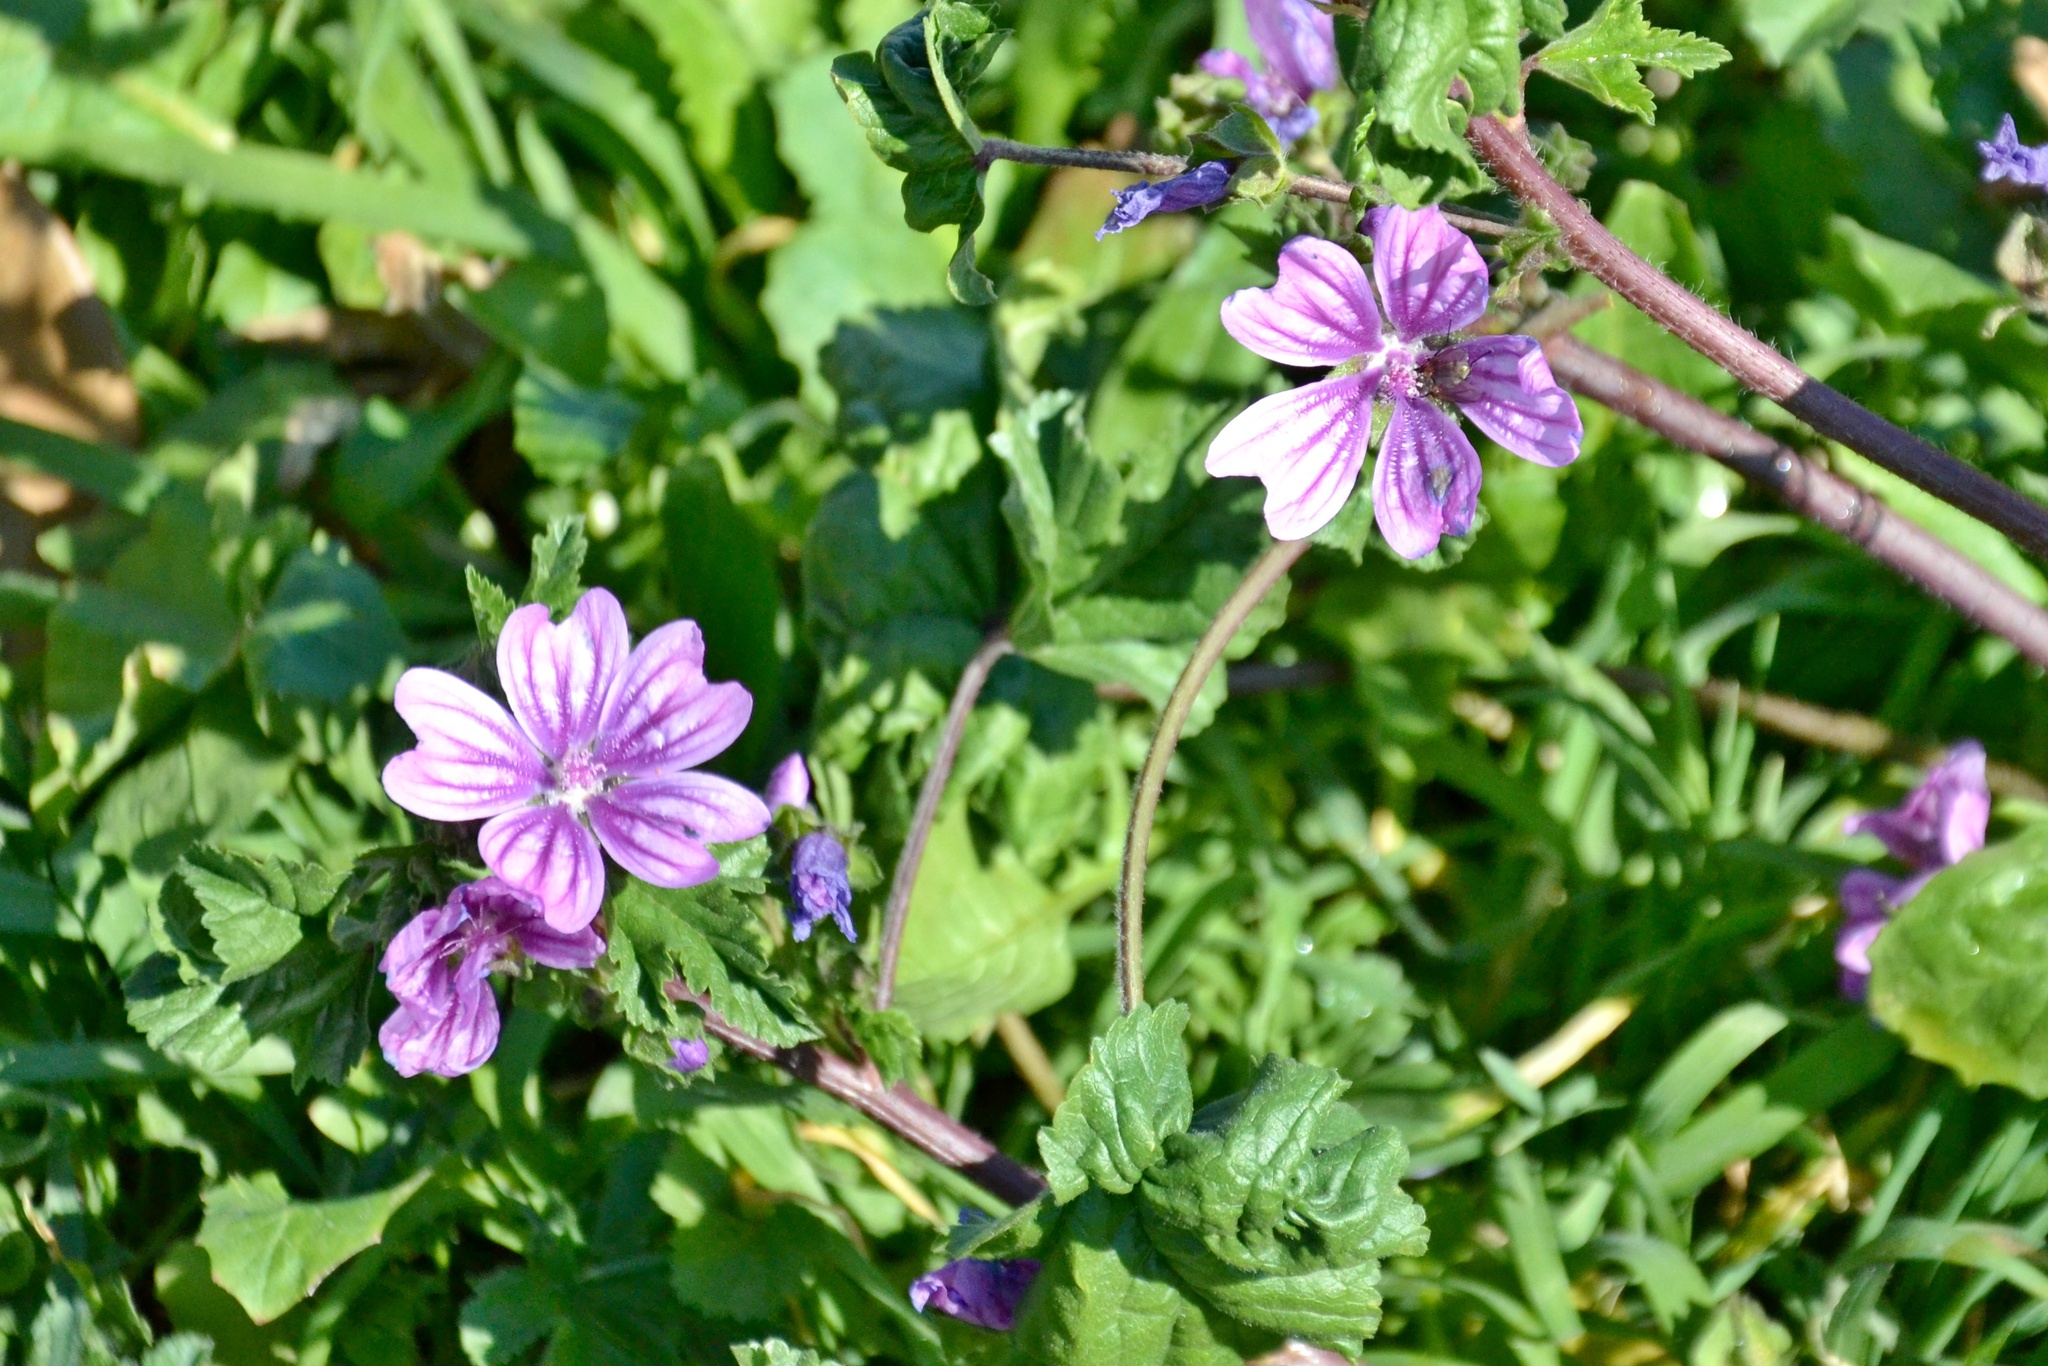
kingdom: Plantae
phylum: Tracheophyta
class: Magnoliopsida
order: Malvales
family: Malvaceae
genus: Malva
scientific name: Malva sylvestris
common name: Common mallow
